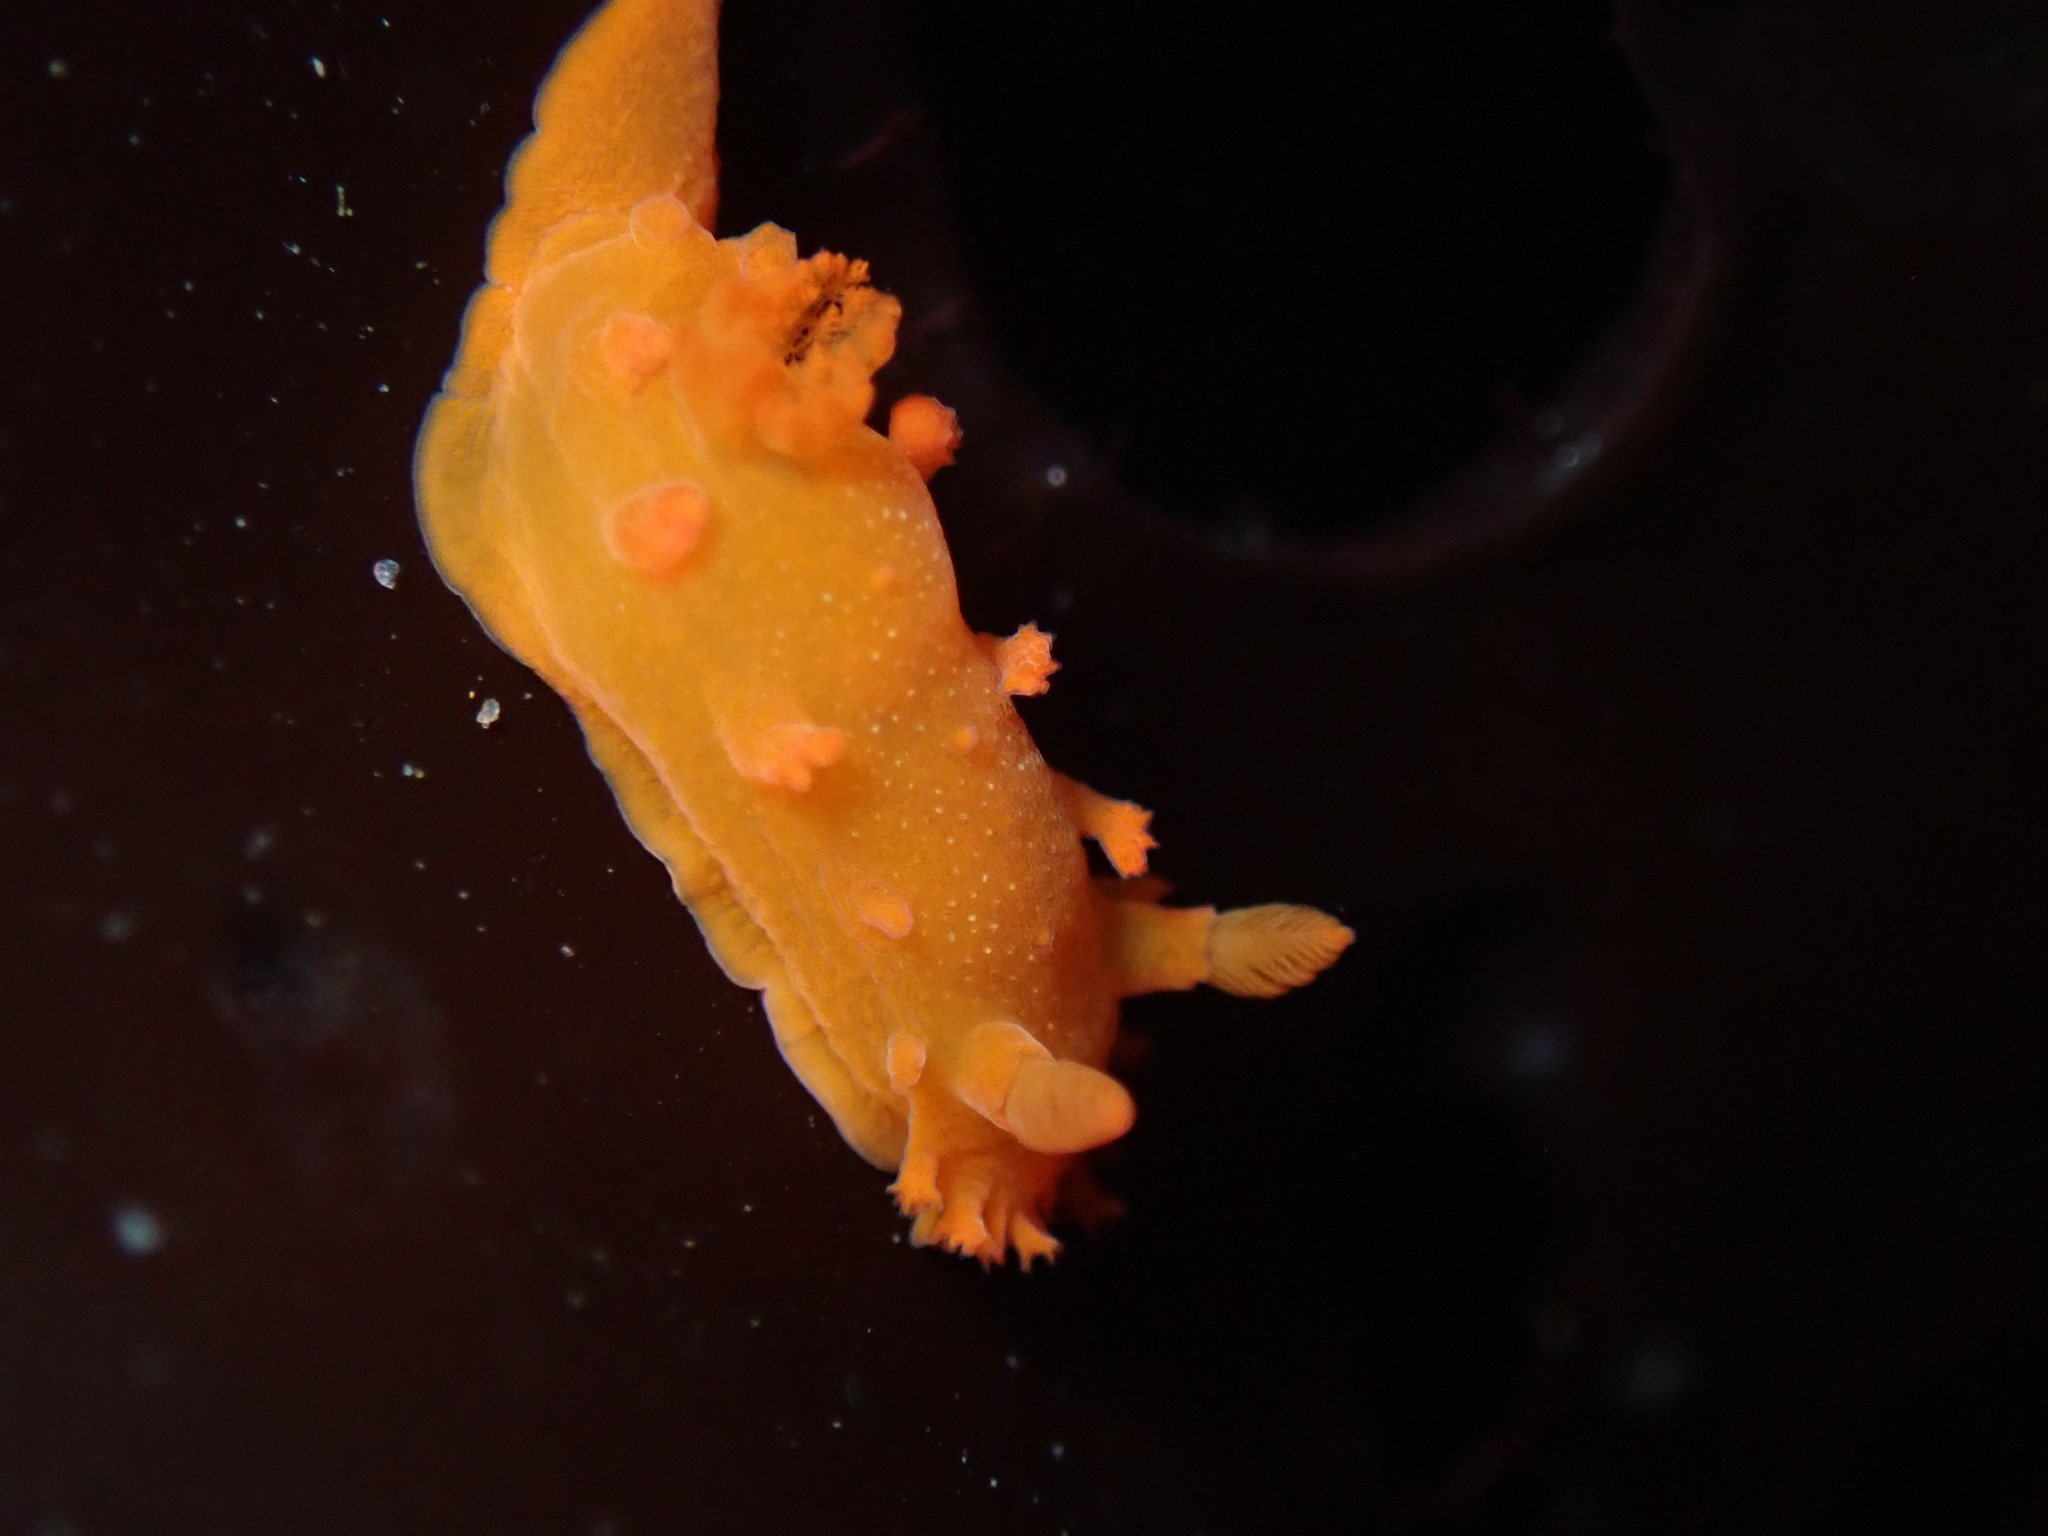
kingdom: Animalia
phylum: Mollusca
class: Gastropoda
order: Nudibranchia
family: Polyceridae
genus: Triopha
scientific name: Triopha maculata
